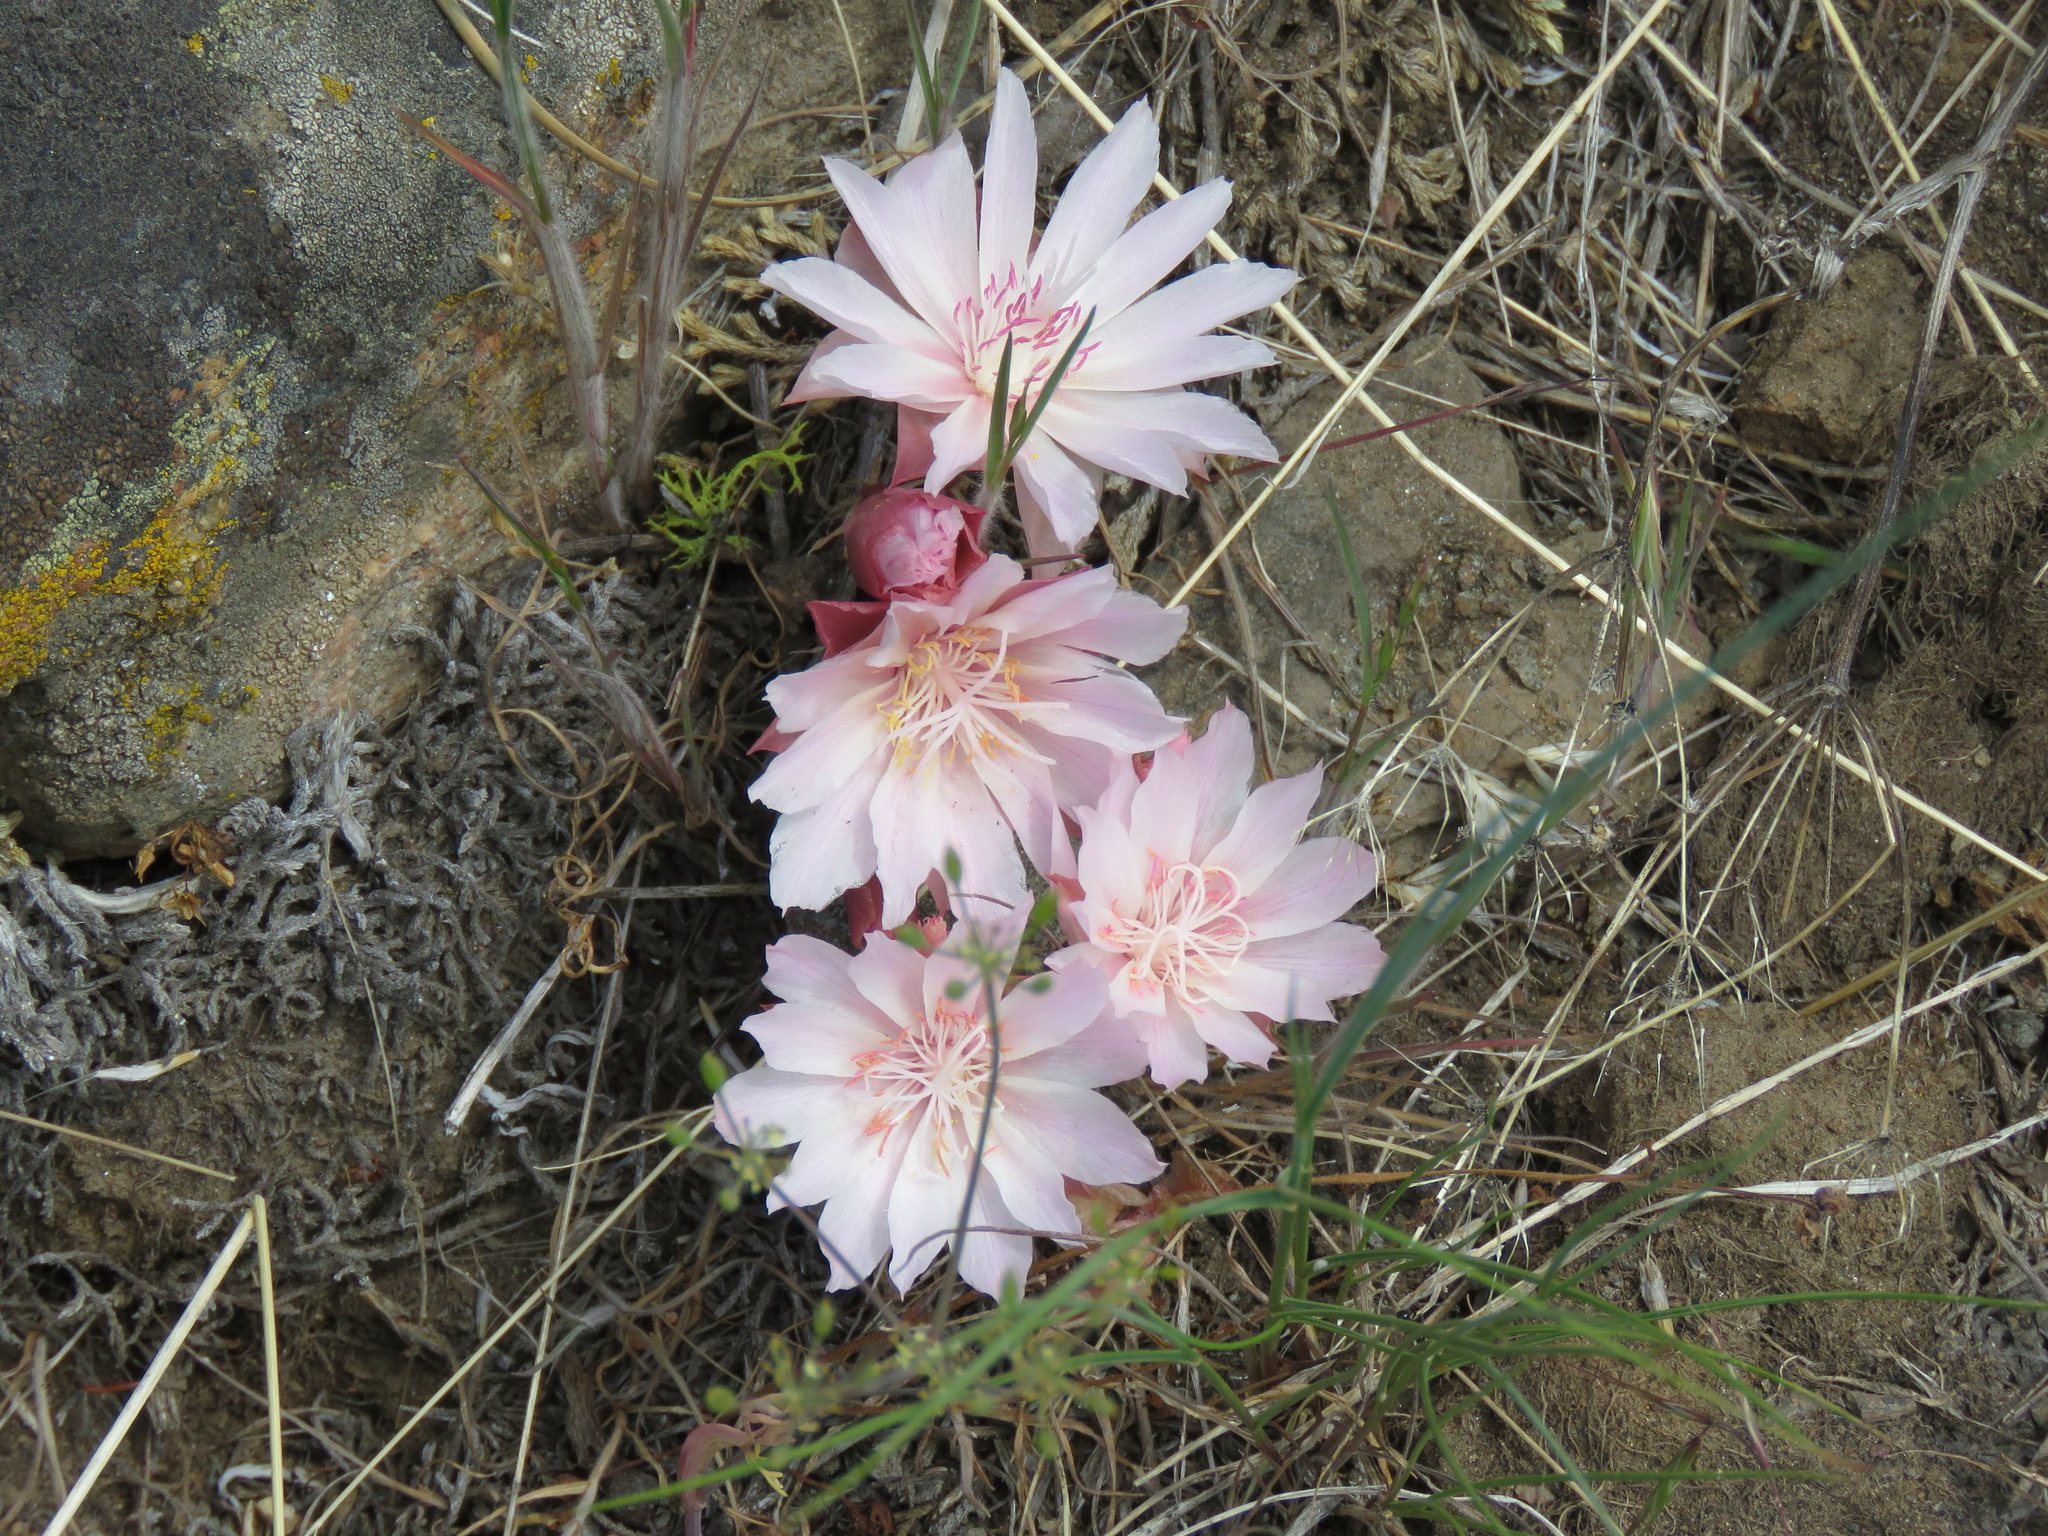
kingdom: Plantae
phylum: Tracheophyta
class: Magnoliopsida
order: Caryophyllales
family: Montiaceae
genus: Lewisia
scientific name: Lewisia rediviva
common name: Bitter-root
